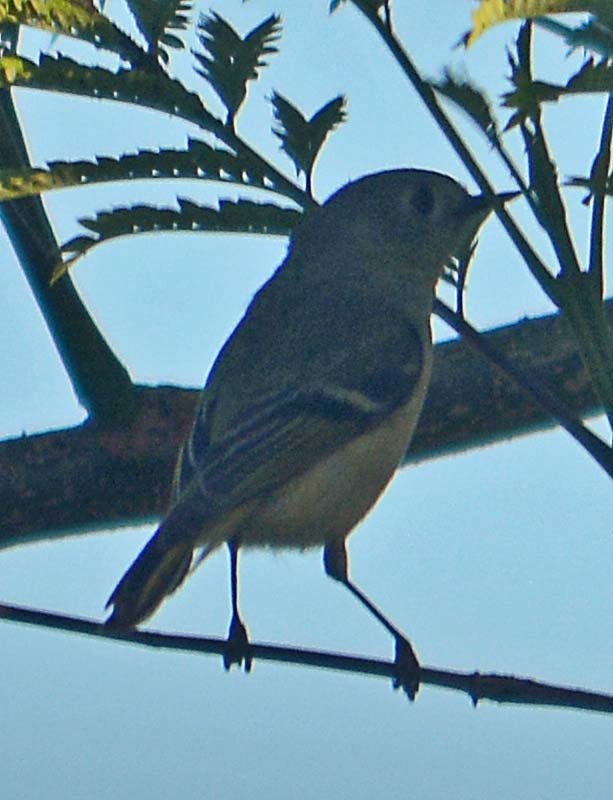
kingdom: Animalia
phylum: Chordata
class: Aves
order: Passeriformes
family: Regulidae
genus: Regulus
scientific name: Regulus calendula
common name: Ruby-crowned kinglet
